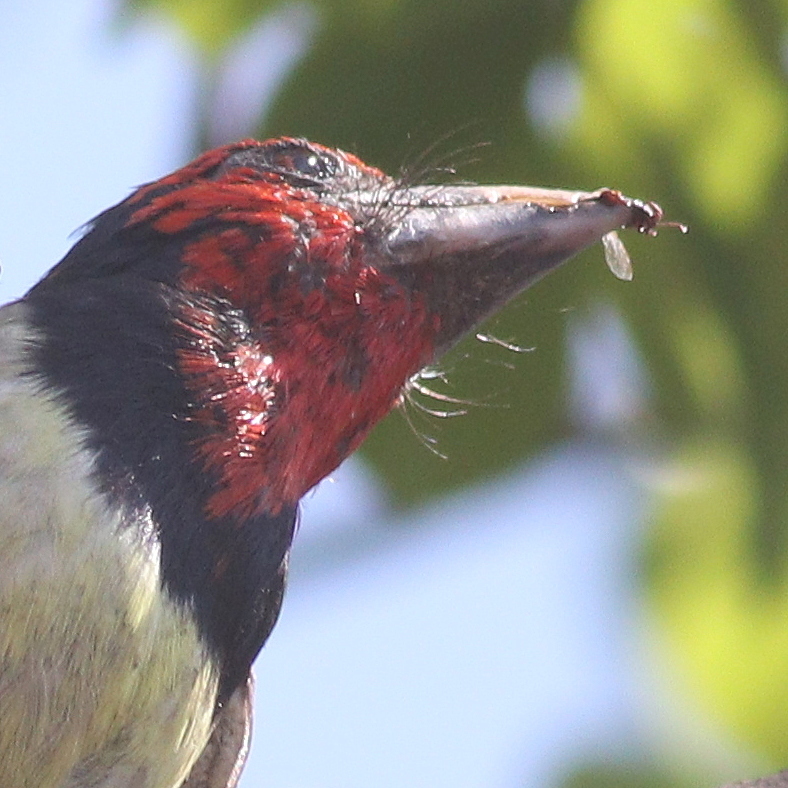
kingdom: Animalia
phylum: Chordata
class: Aves
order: Piciformes
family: Lybiidae
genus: Lybius
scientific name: Lybius torquatus
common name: Black-collared barbet
